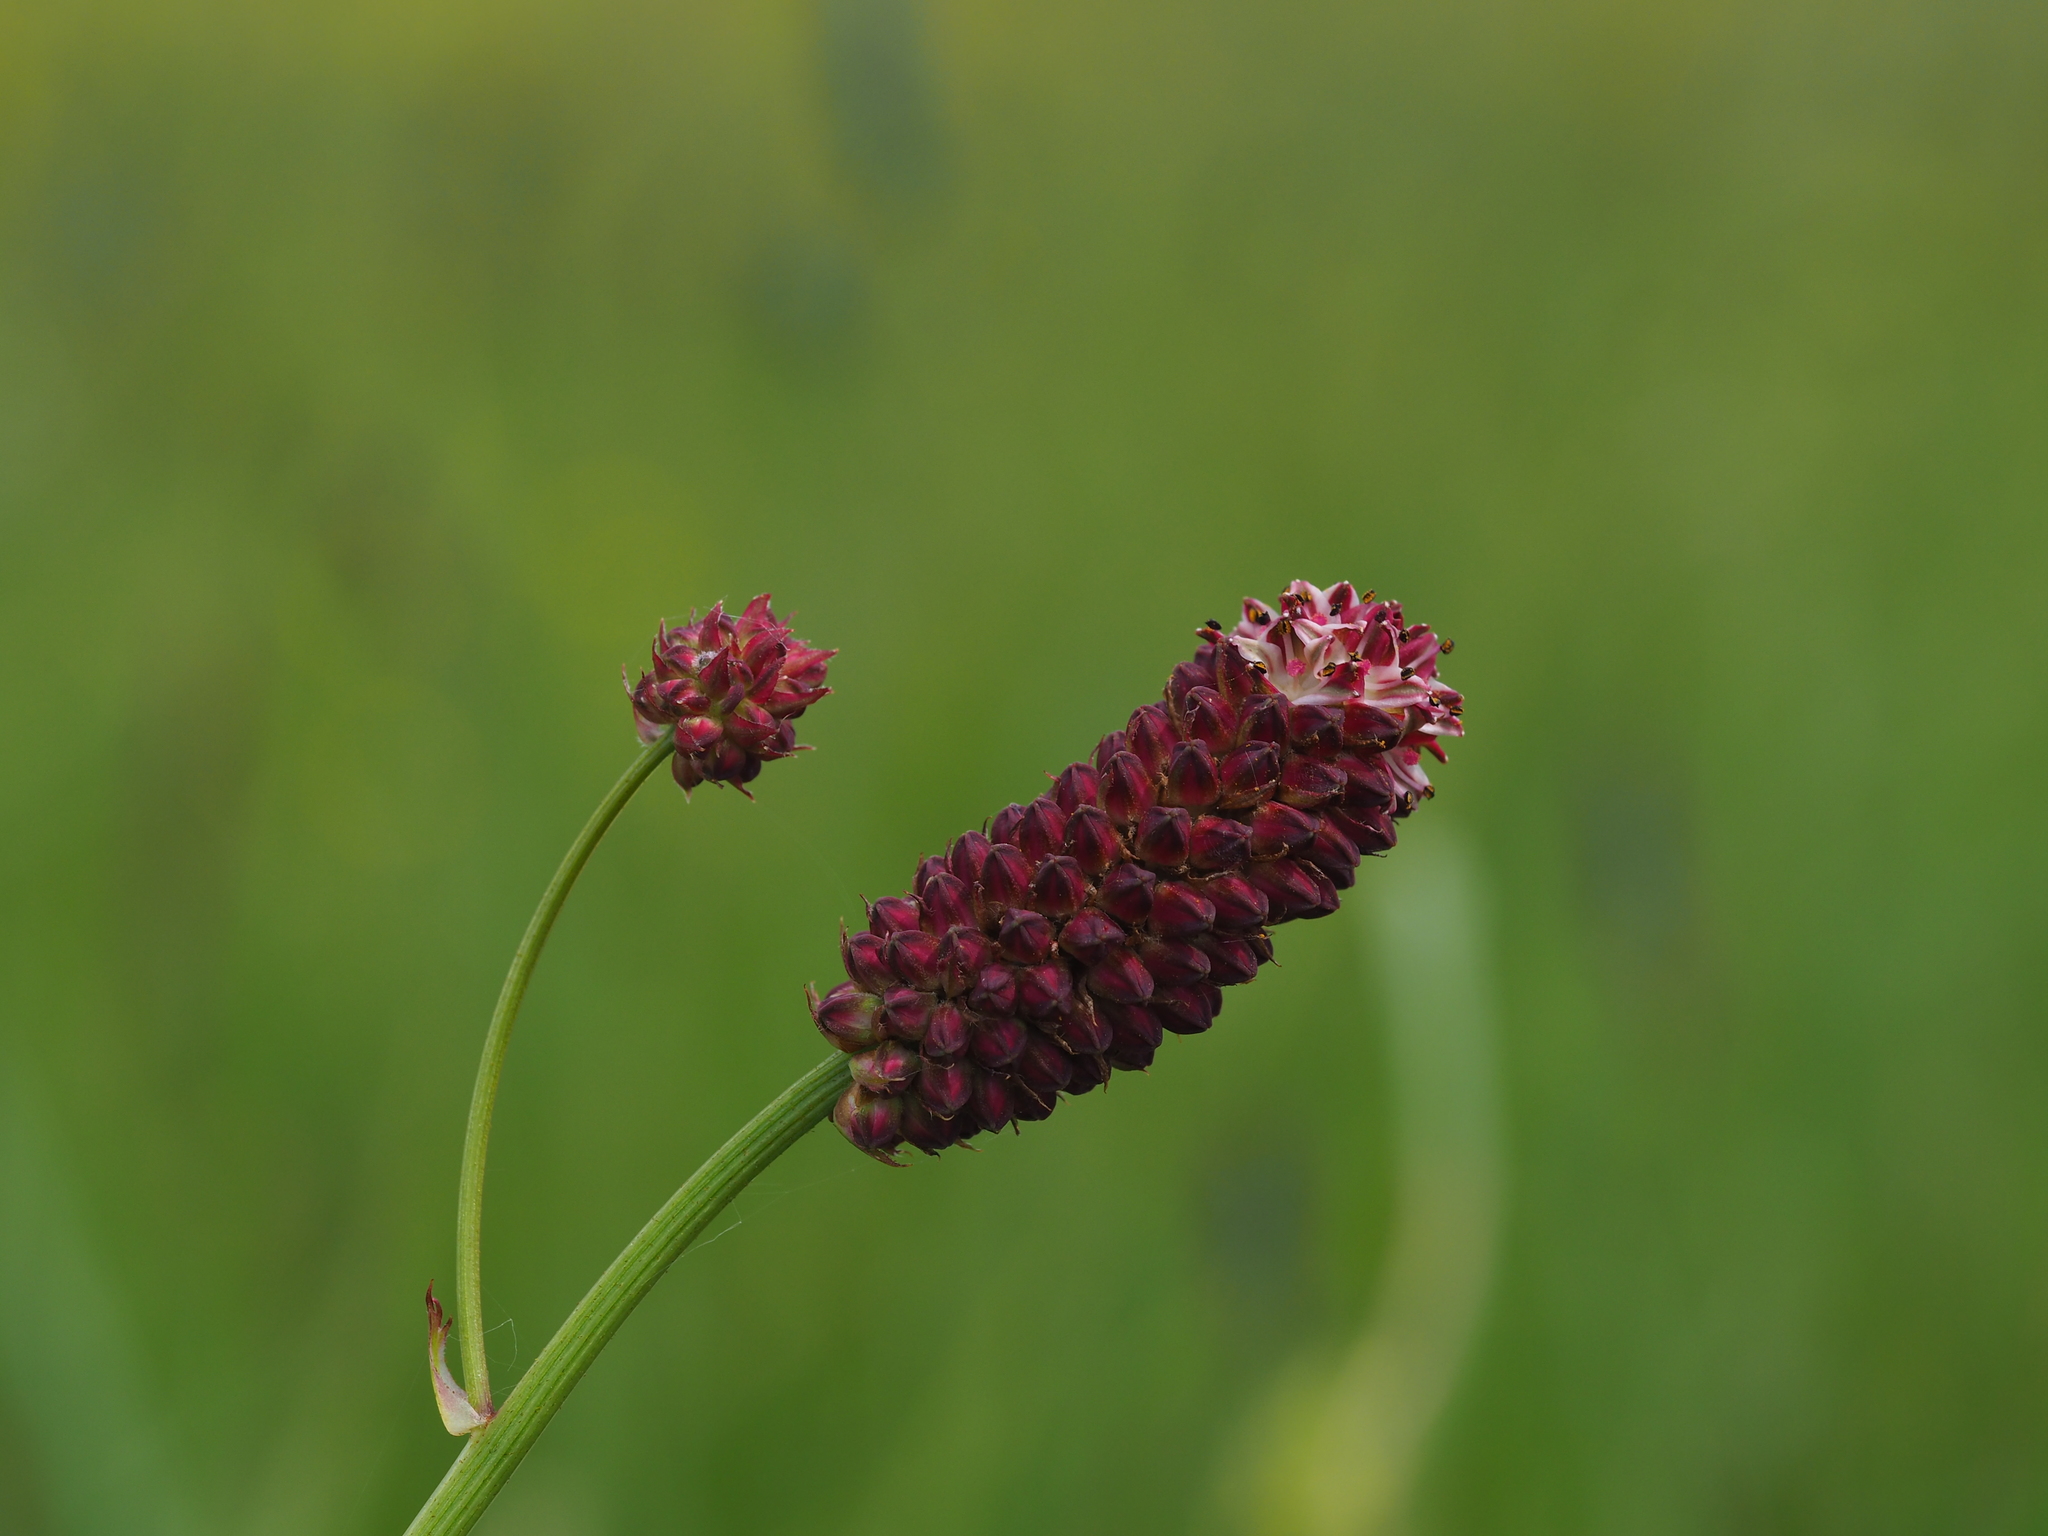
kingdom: Plantae
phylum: Tracheophyta
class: Magnoliopsida
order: Rosales
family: Rosaceae
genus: Sanguisorba
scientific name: Sanguisorba officinalis
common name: Great burnet
